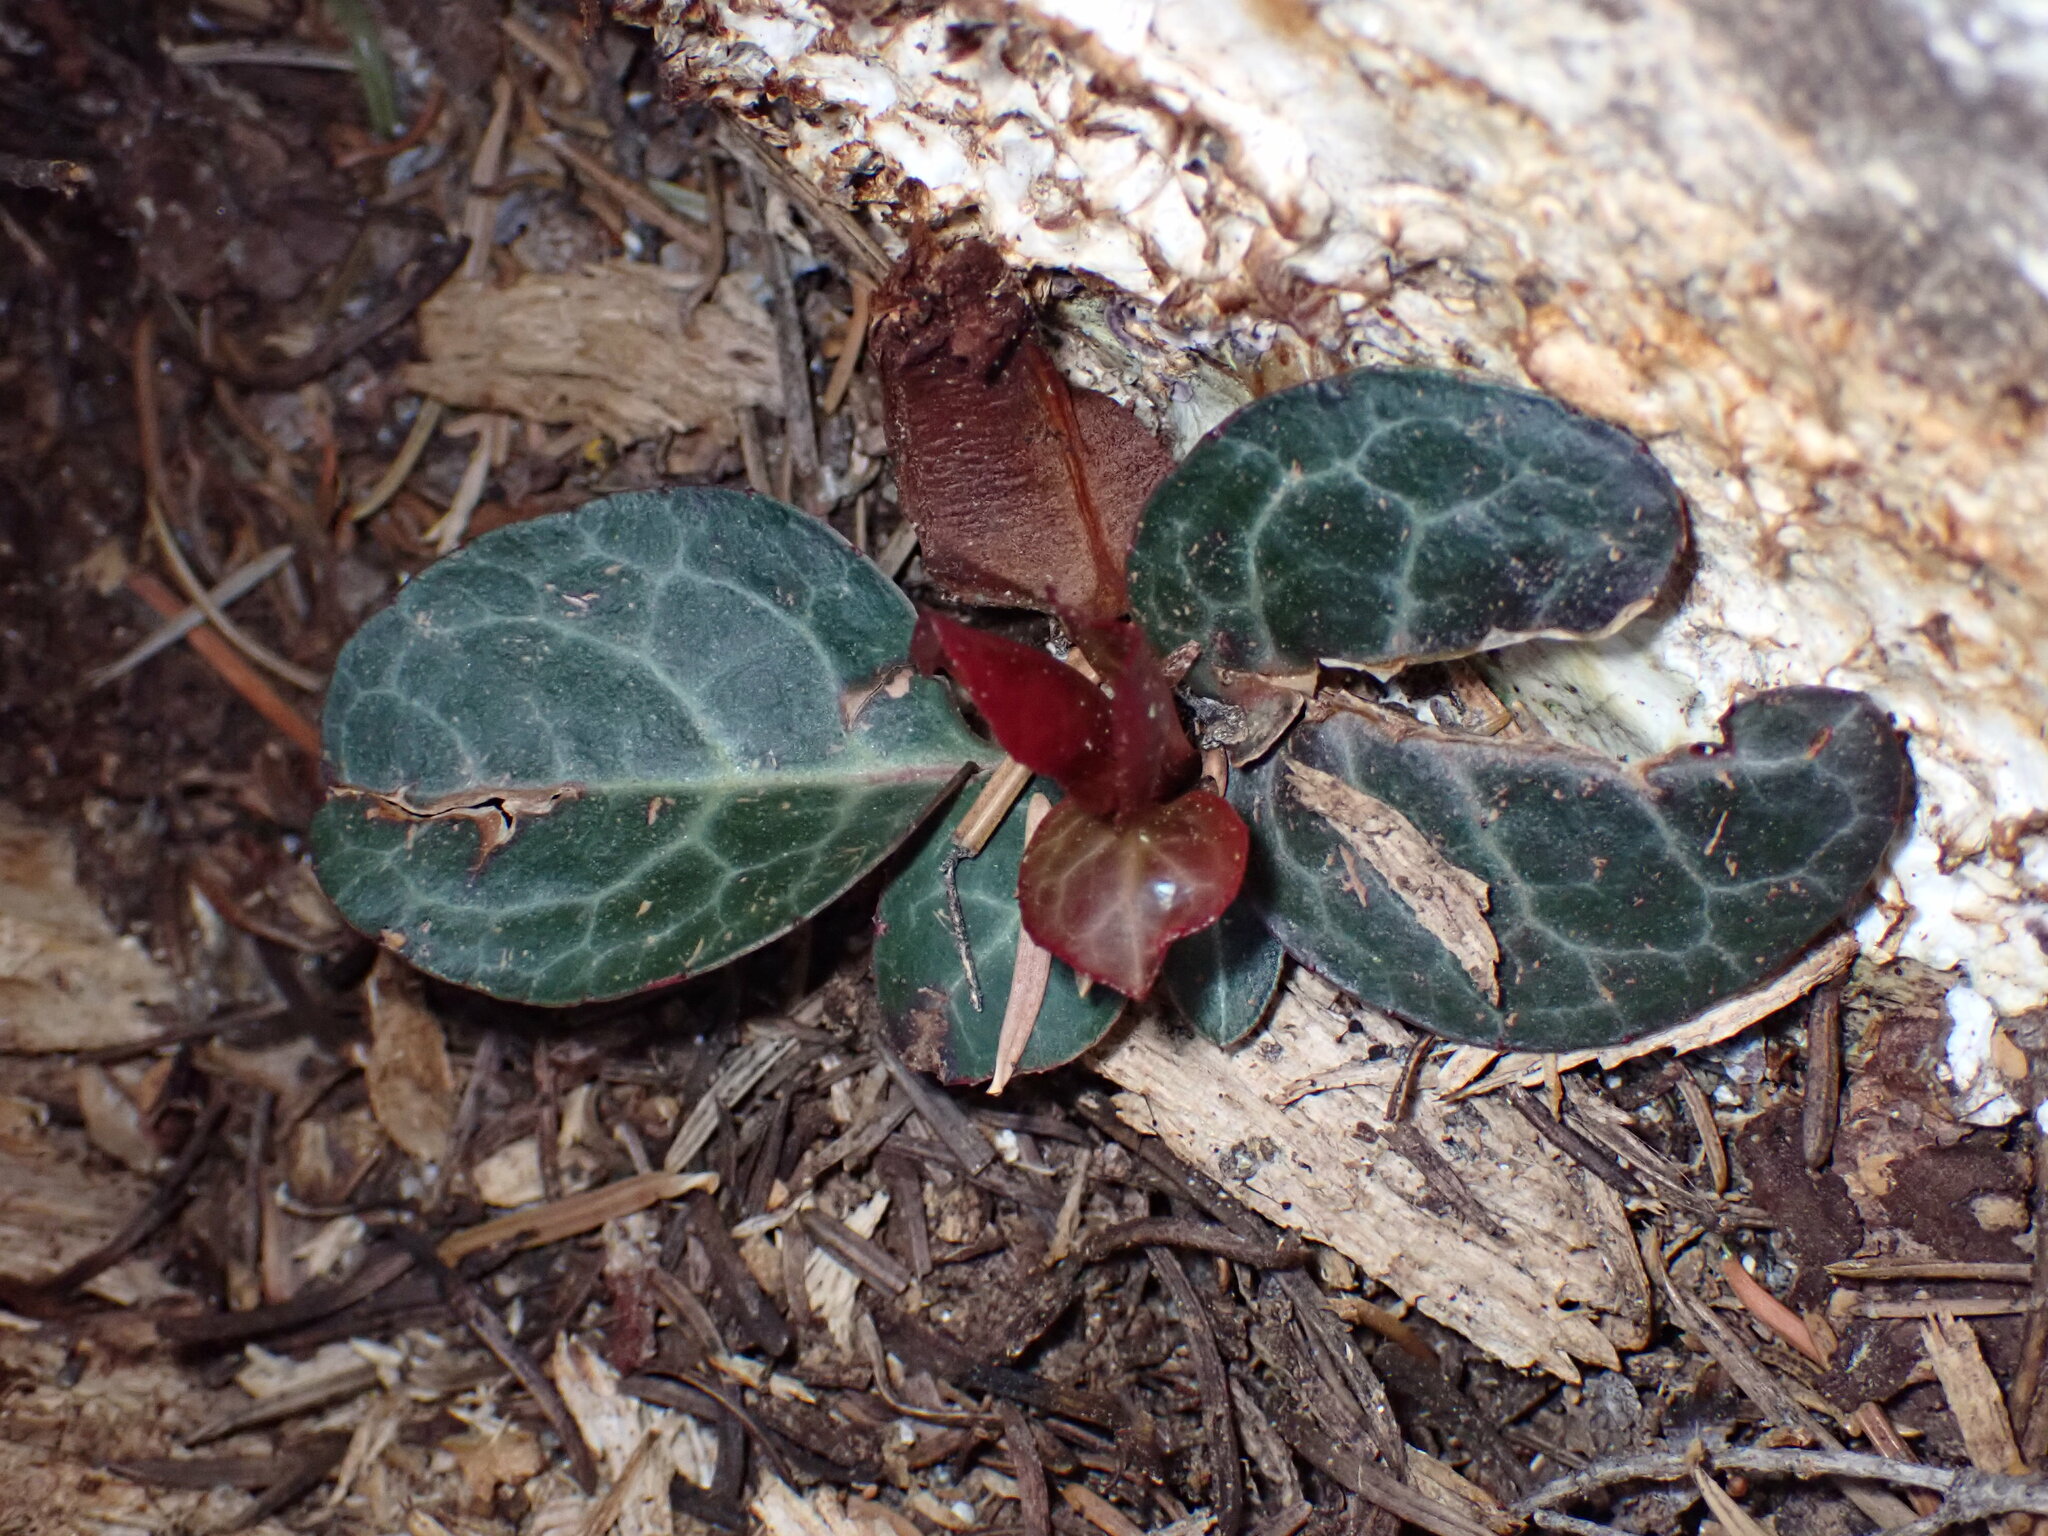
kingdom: Plantae
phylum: Tracheophyta
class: Magnoliopsida
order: Ericales
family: Ericaceae
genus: Pyrola
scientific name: Pyrola picta
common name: White-vein wintergreen
